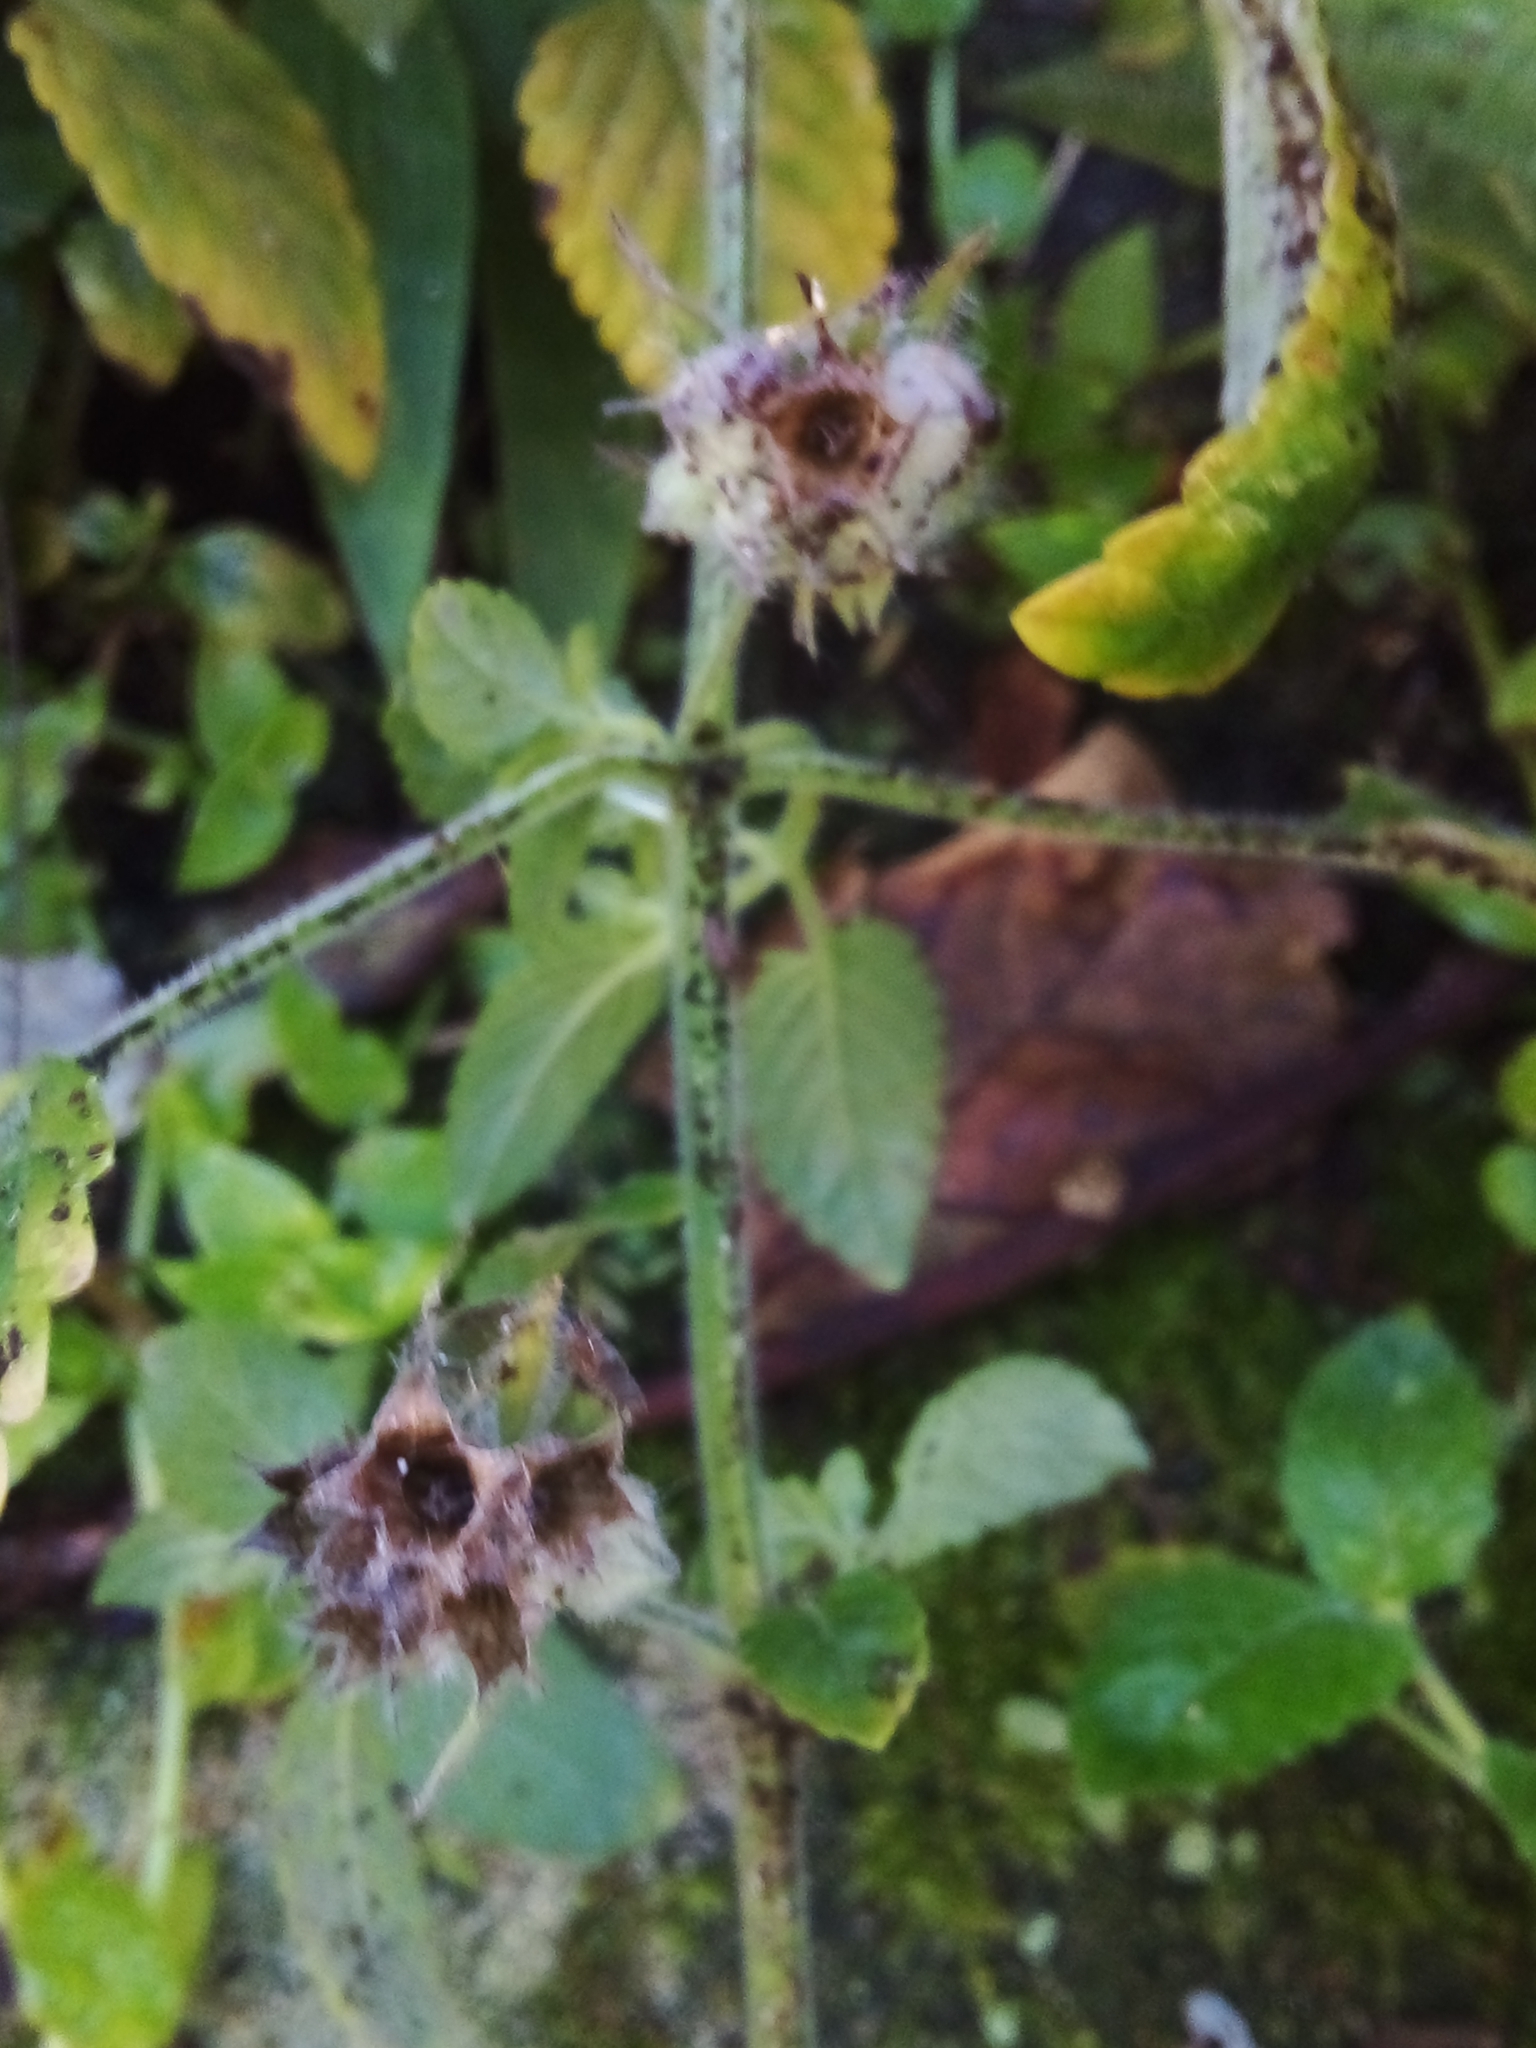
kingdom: Plantae
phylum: Tracheophyta
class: Magnoliopsida
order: Lamiales
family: Lamiaceae
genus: Marsypianthes
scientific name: Marsypianthes chamaedrys
